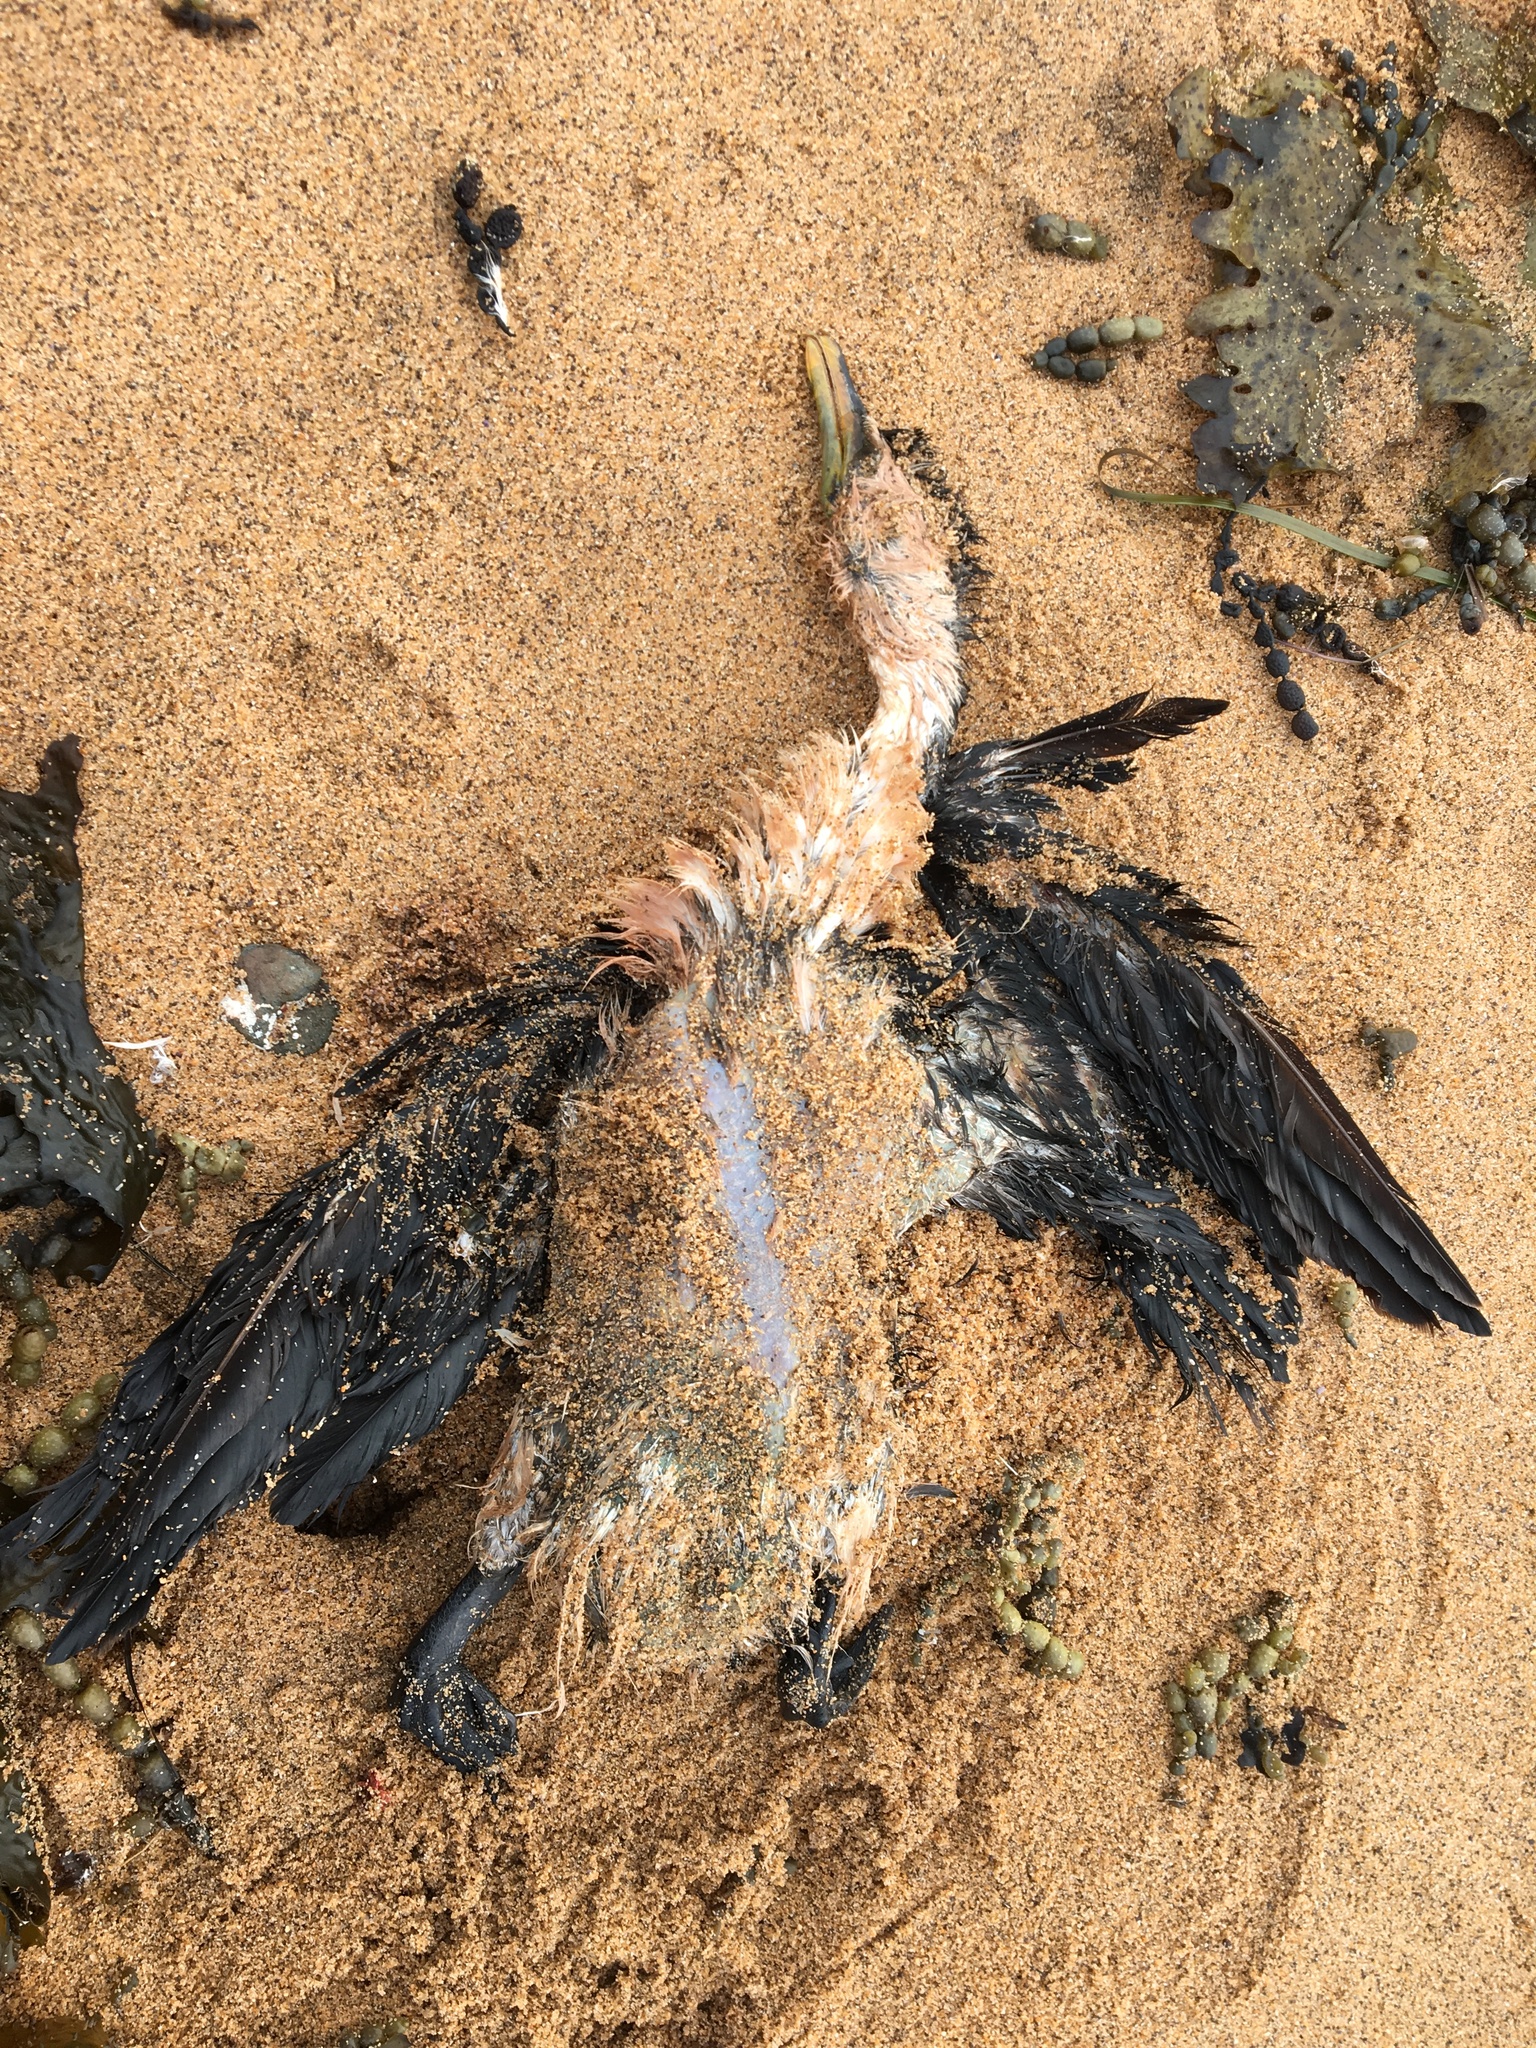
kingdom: Animalia
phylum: Chordata
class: Aves
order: Suliformes
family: Phalacrocoracidae
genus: Microcarbo
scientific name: Microcarbo melanoleucos
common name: Little pied cormorant
